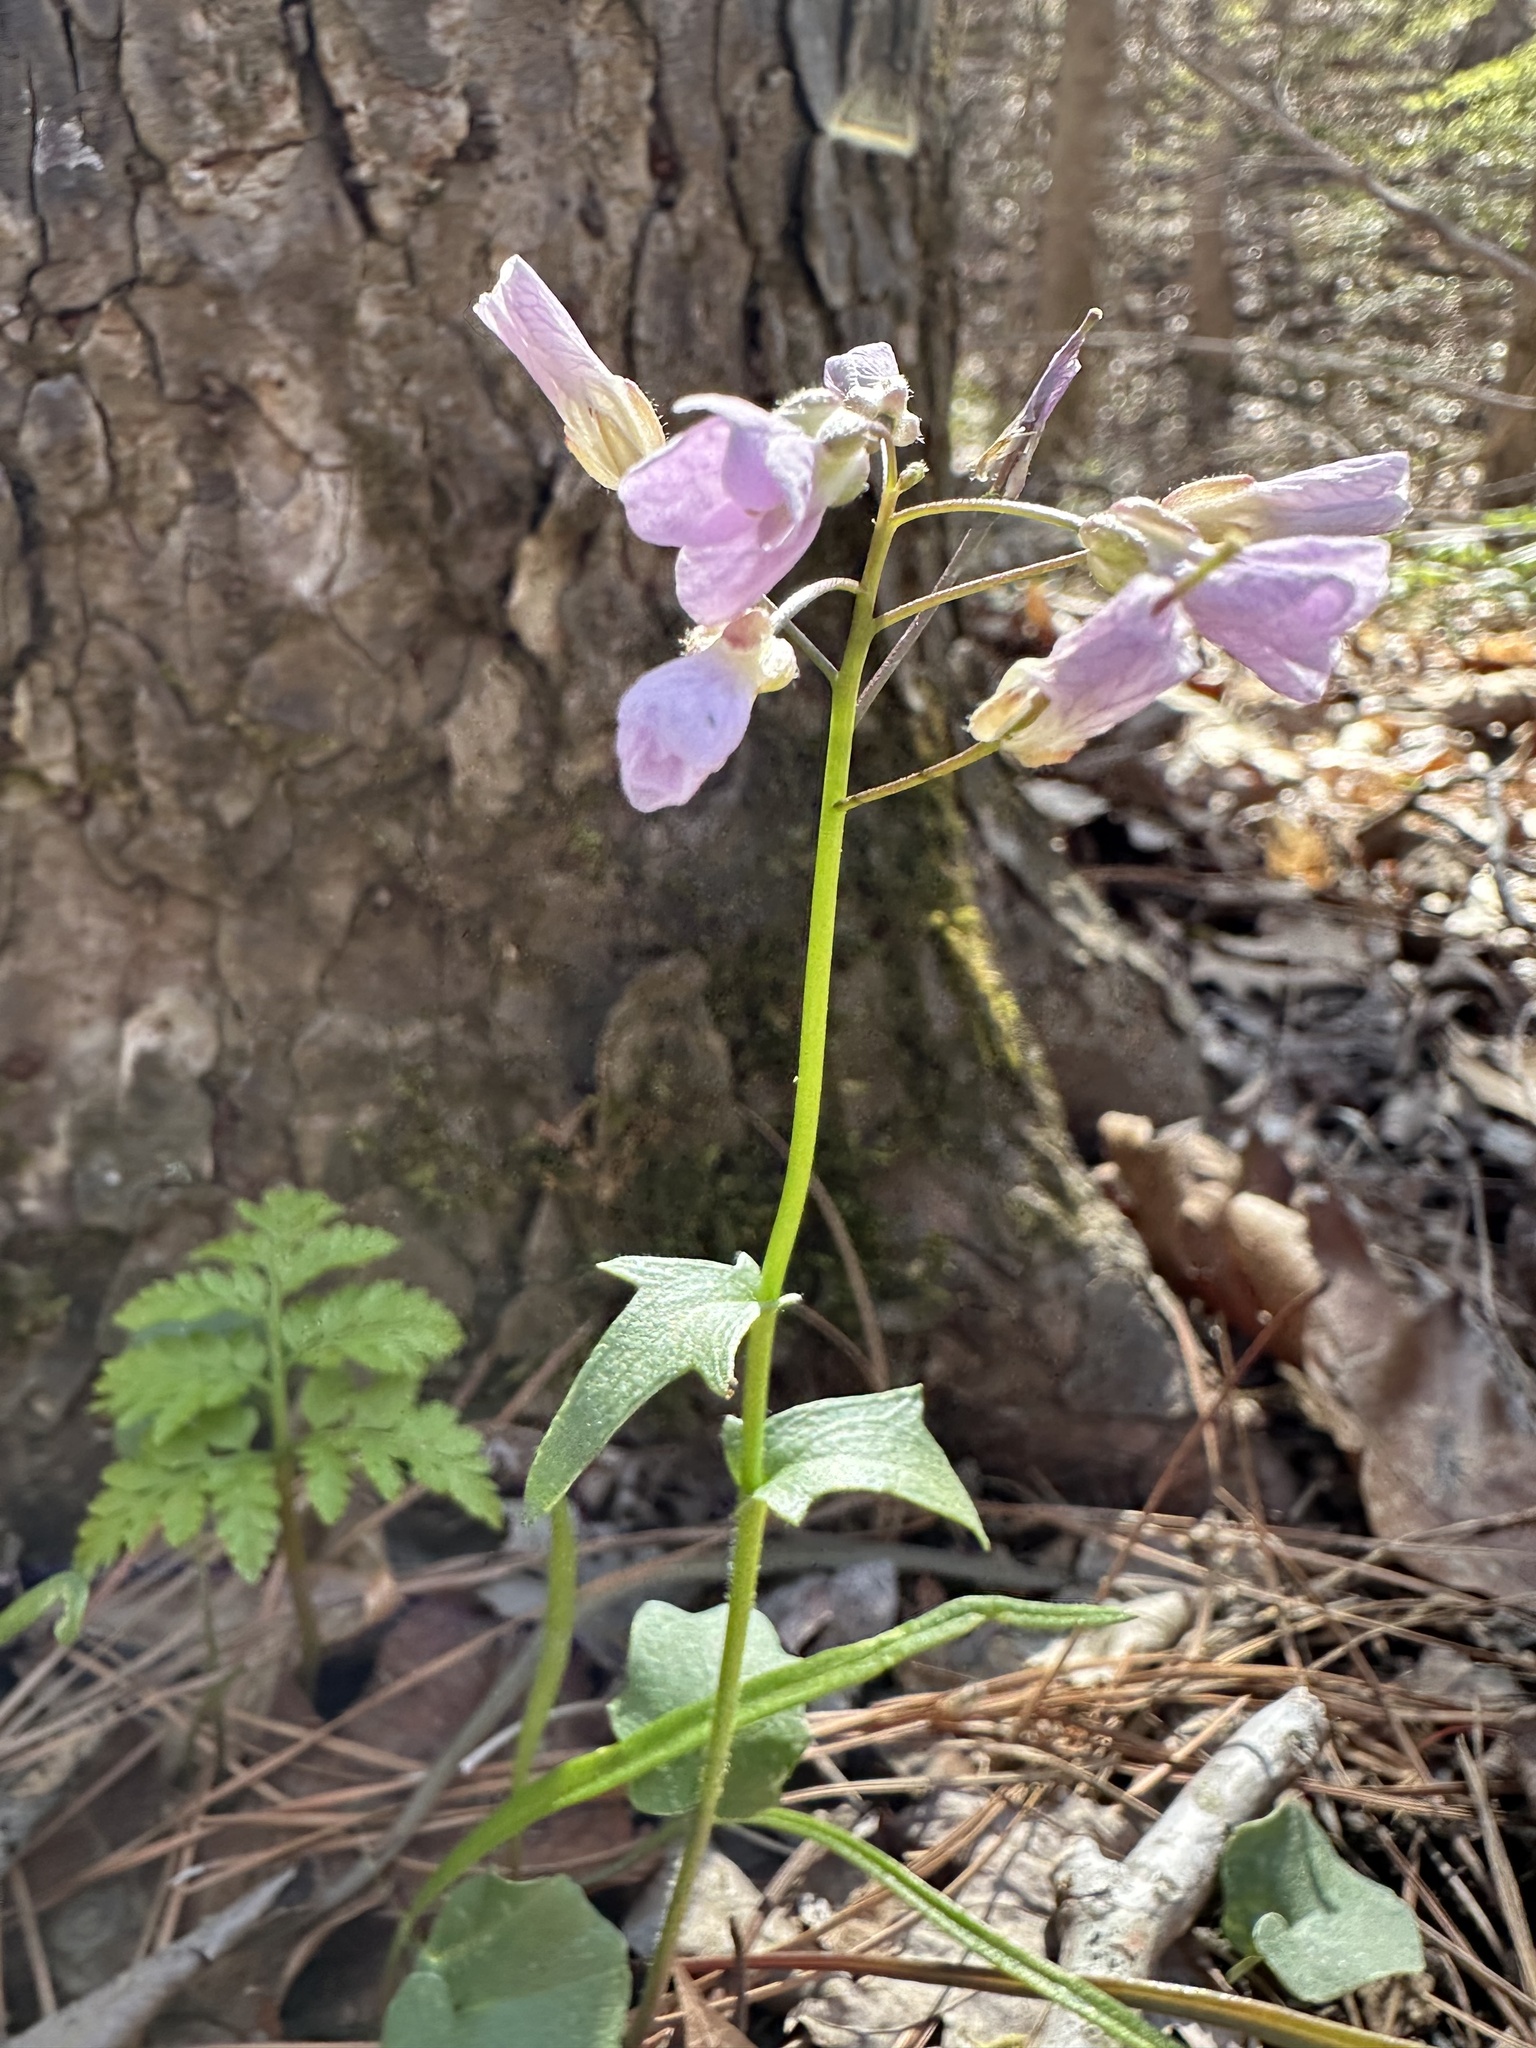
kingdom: Plantae
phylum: Tracheophyta
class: Magnoliopsida
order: Brassicales
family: Brassicaceae
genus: Cardamine
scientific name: Cardamine douglassii
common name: Purple cress
